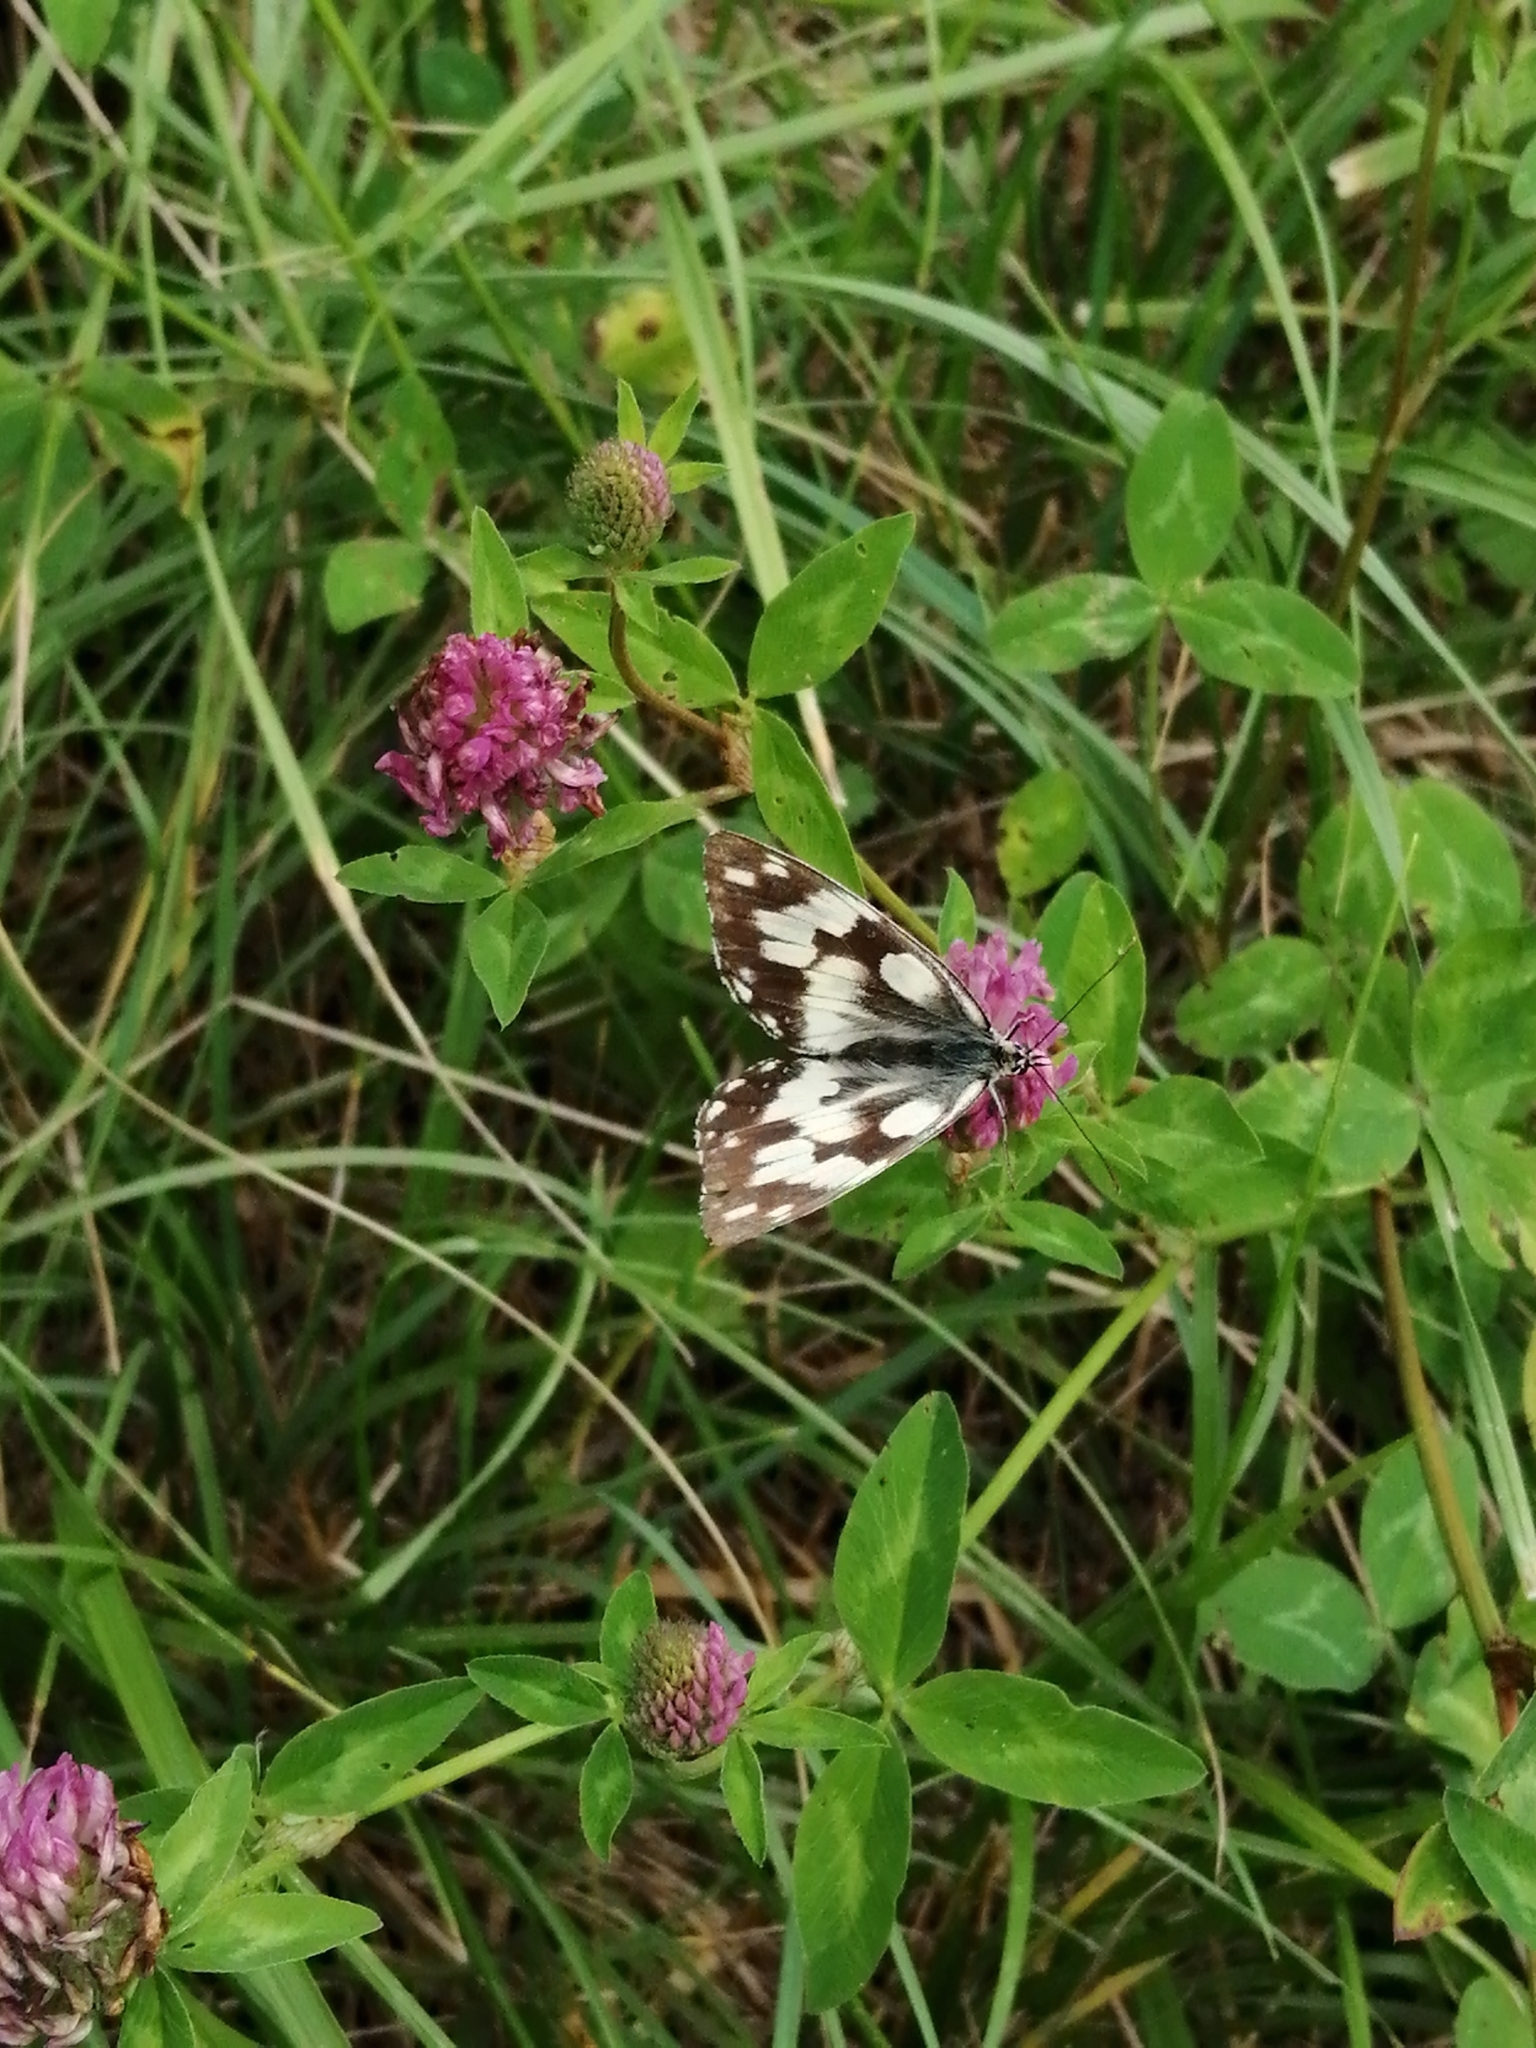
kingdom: Animalia
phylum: Arthropoda
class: Insecta
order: Lepidoptera
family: Nymphalidae
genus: Melanargia
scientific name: Melanargia galathea
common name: Marbled white
